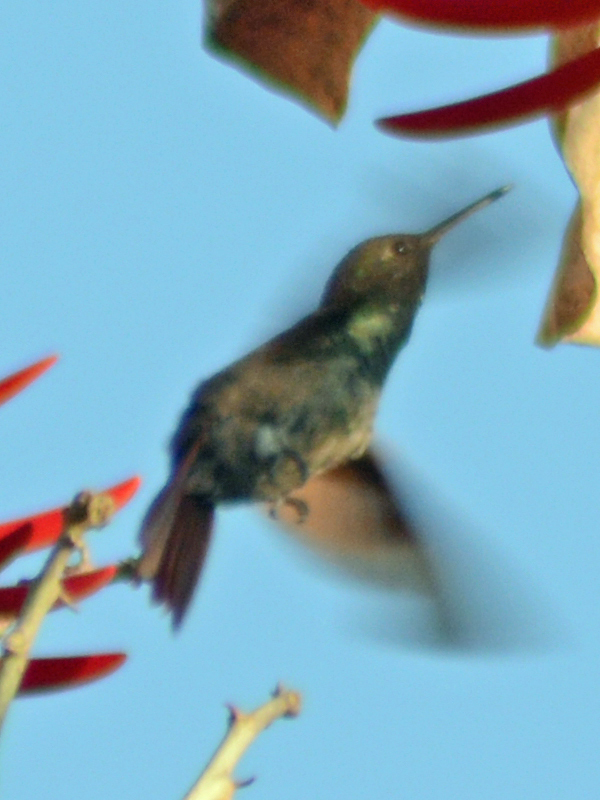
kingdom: Animalia
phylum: Chordata
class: Aves
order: Apodiformes
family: Trochilidae
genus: Saucerottia
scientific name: Saucerottia beryllina
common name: Berylline hummingbird
